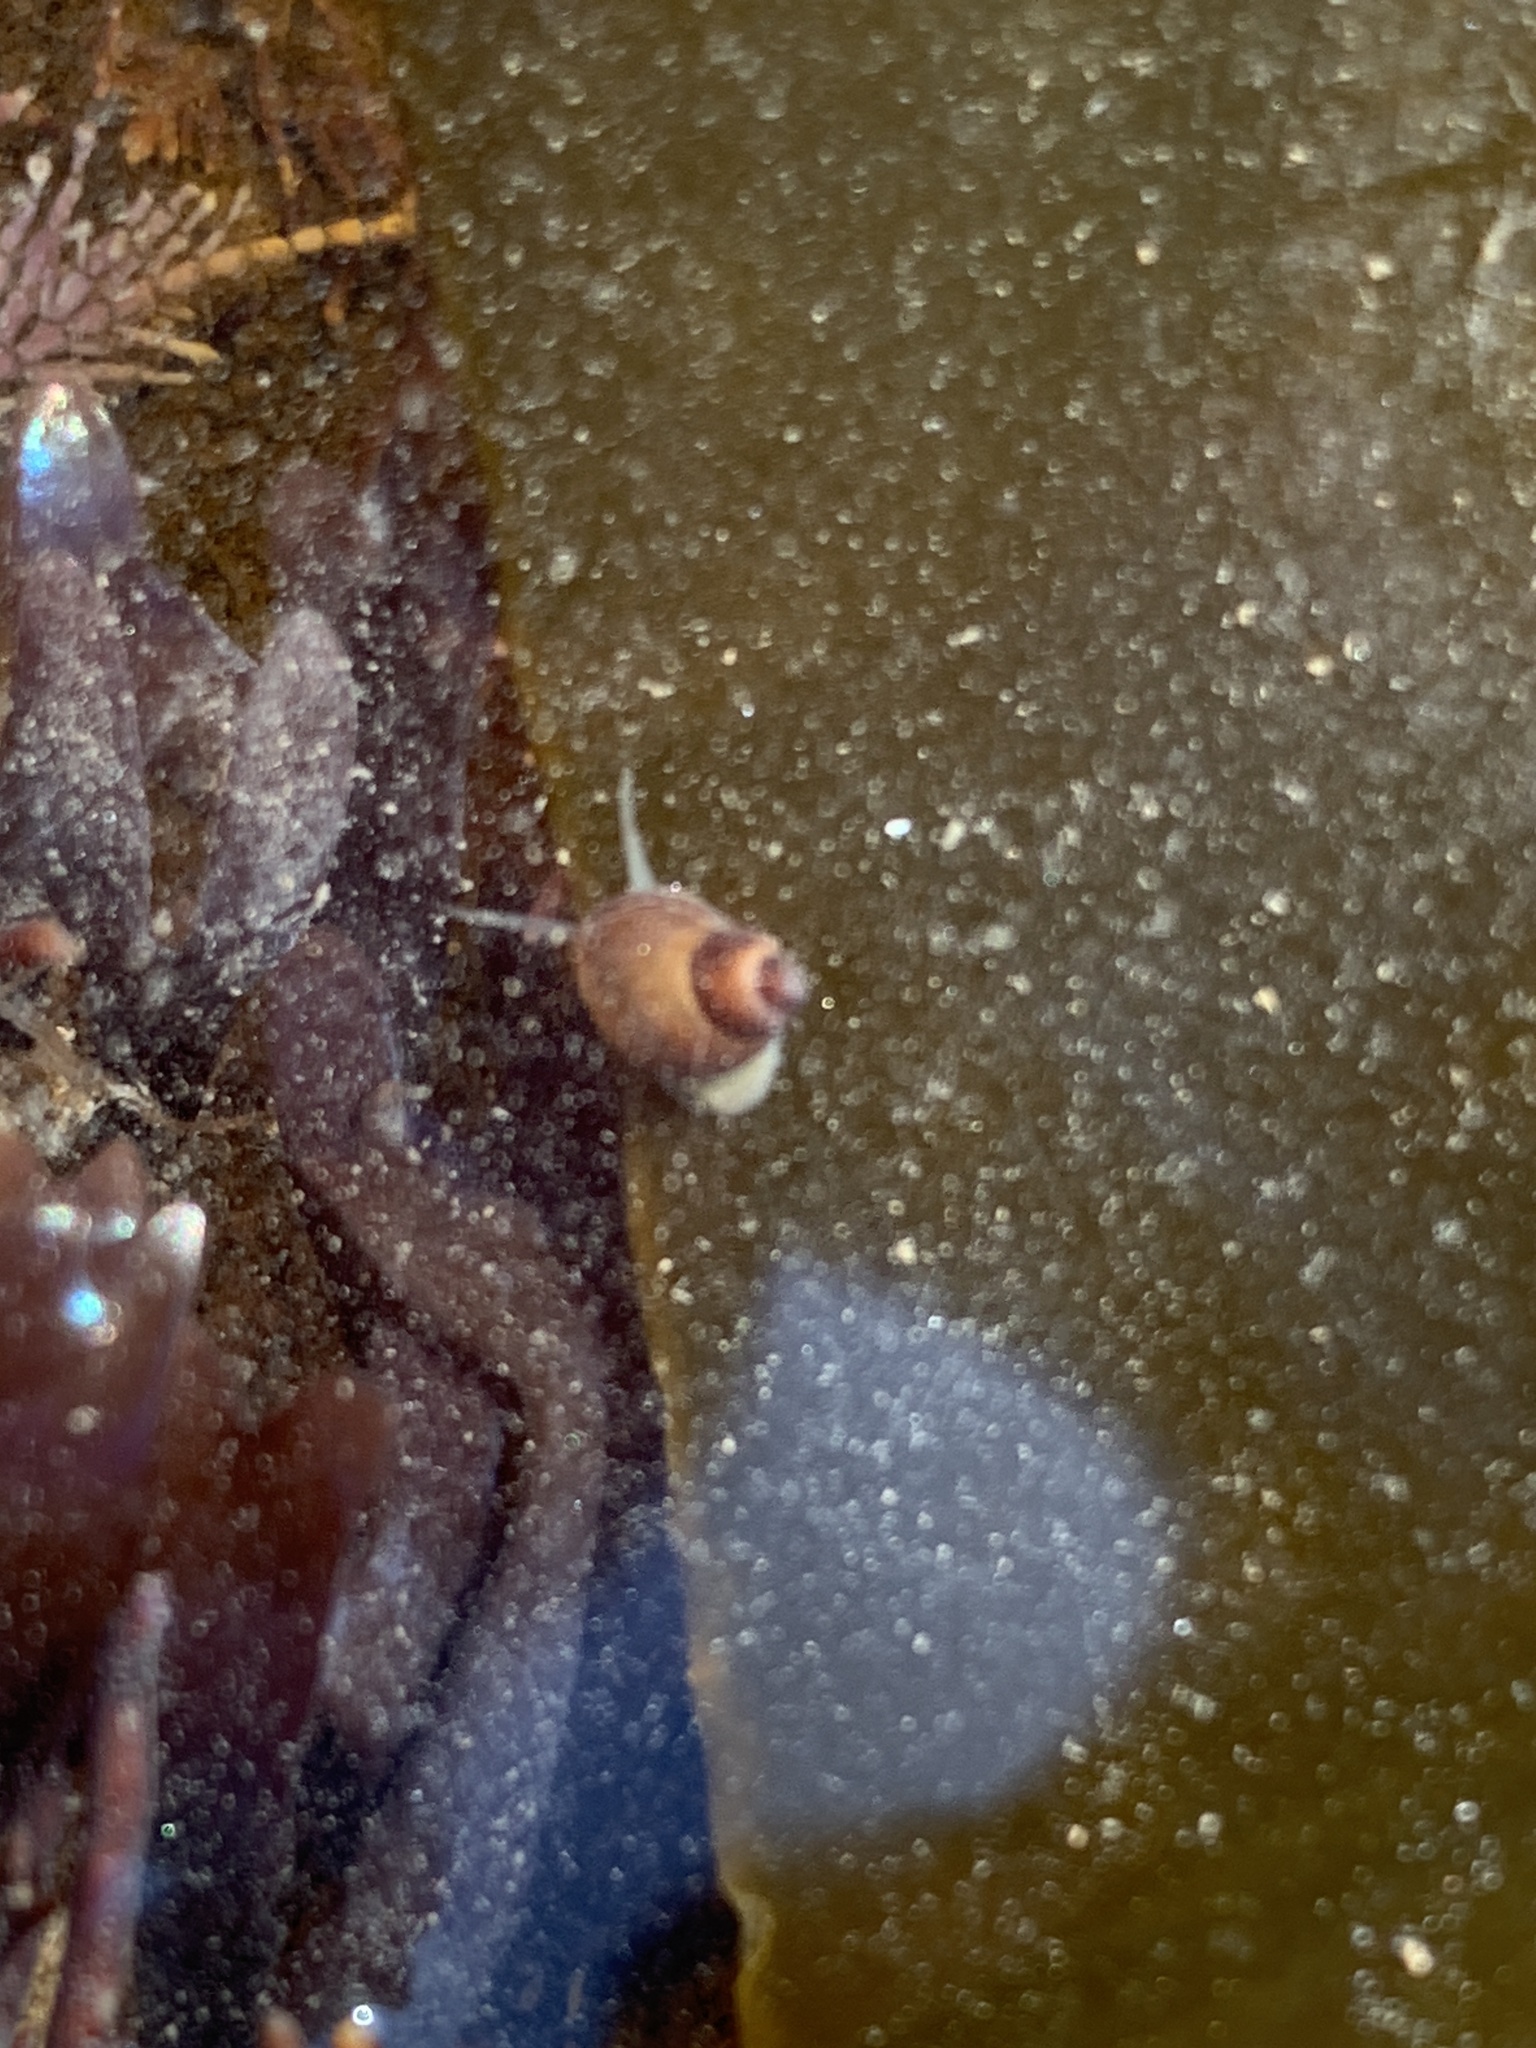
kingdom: Animalia
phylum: Mollusca
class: Gastropoda
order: Littorinimorpha
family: Littorinidae
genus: Lacuna
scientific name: Lacuna vincta
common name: Banded chink shell
